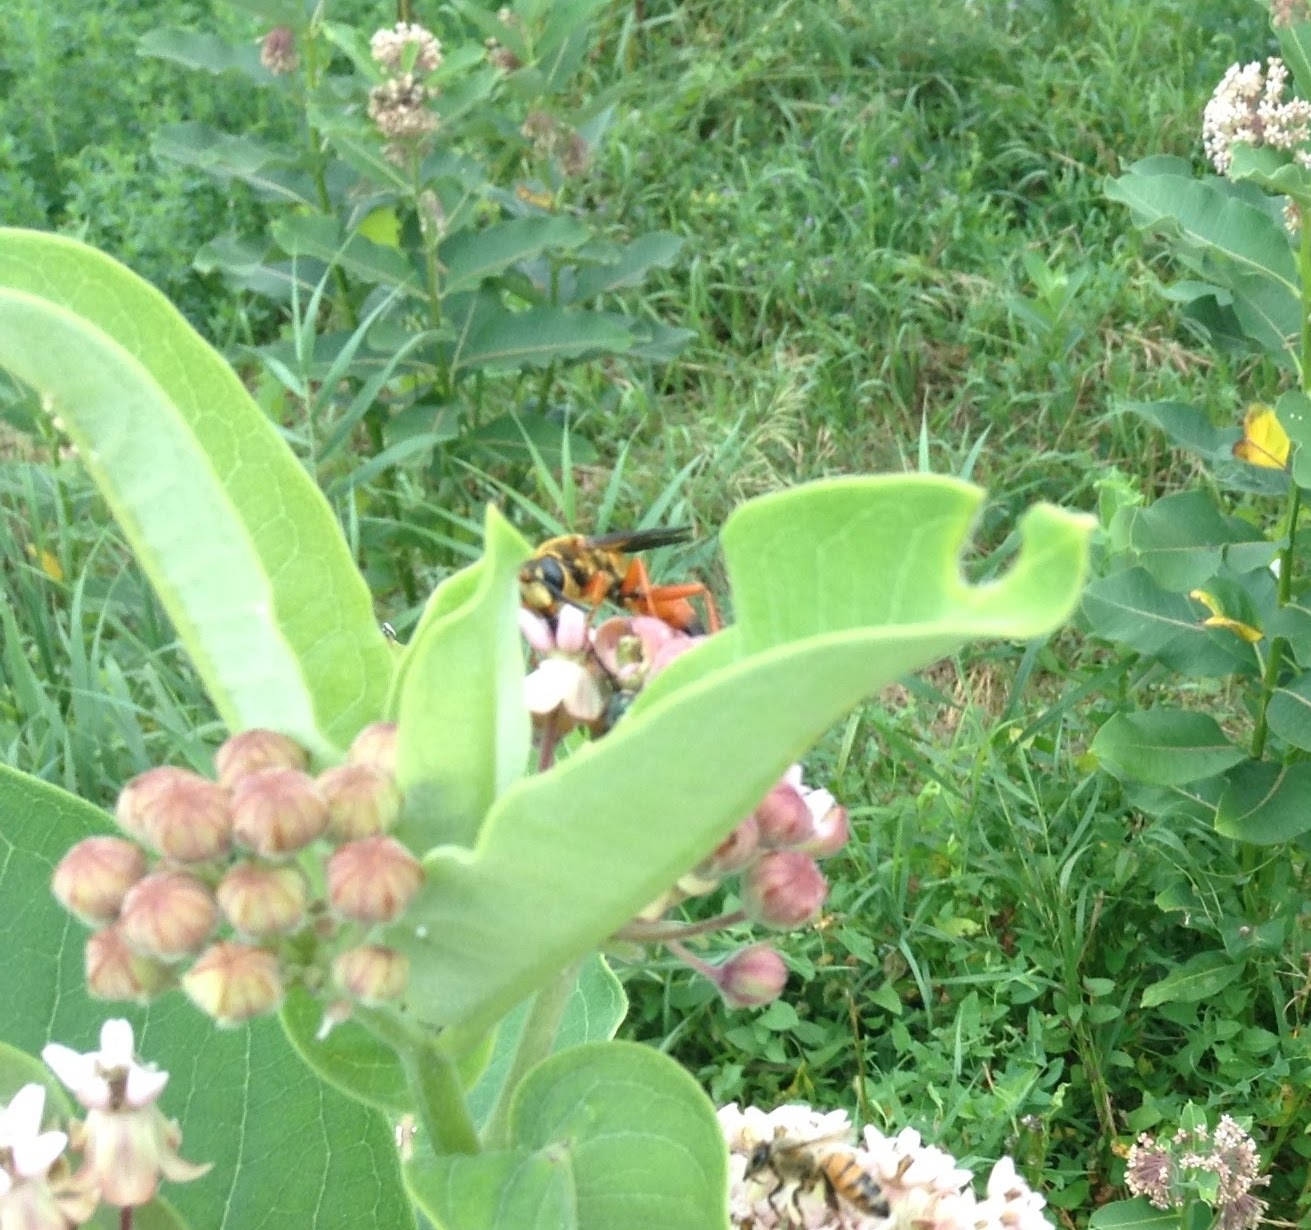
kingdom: Animalia
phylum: Arthropoda
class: Insecta
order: Hymenoptera
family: Sphecidae
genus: Sphex
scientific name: Sphex ichneumoneus
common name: Great golden digger wasp
